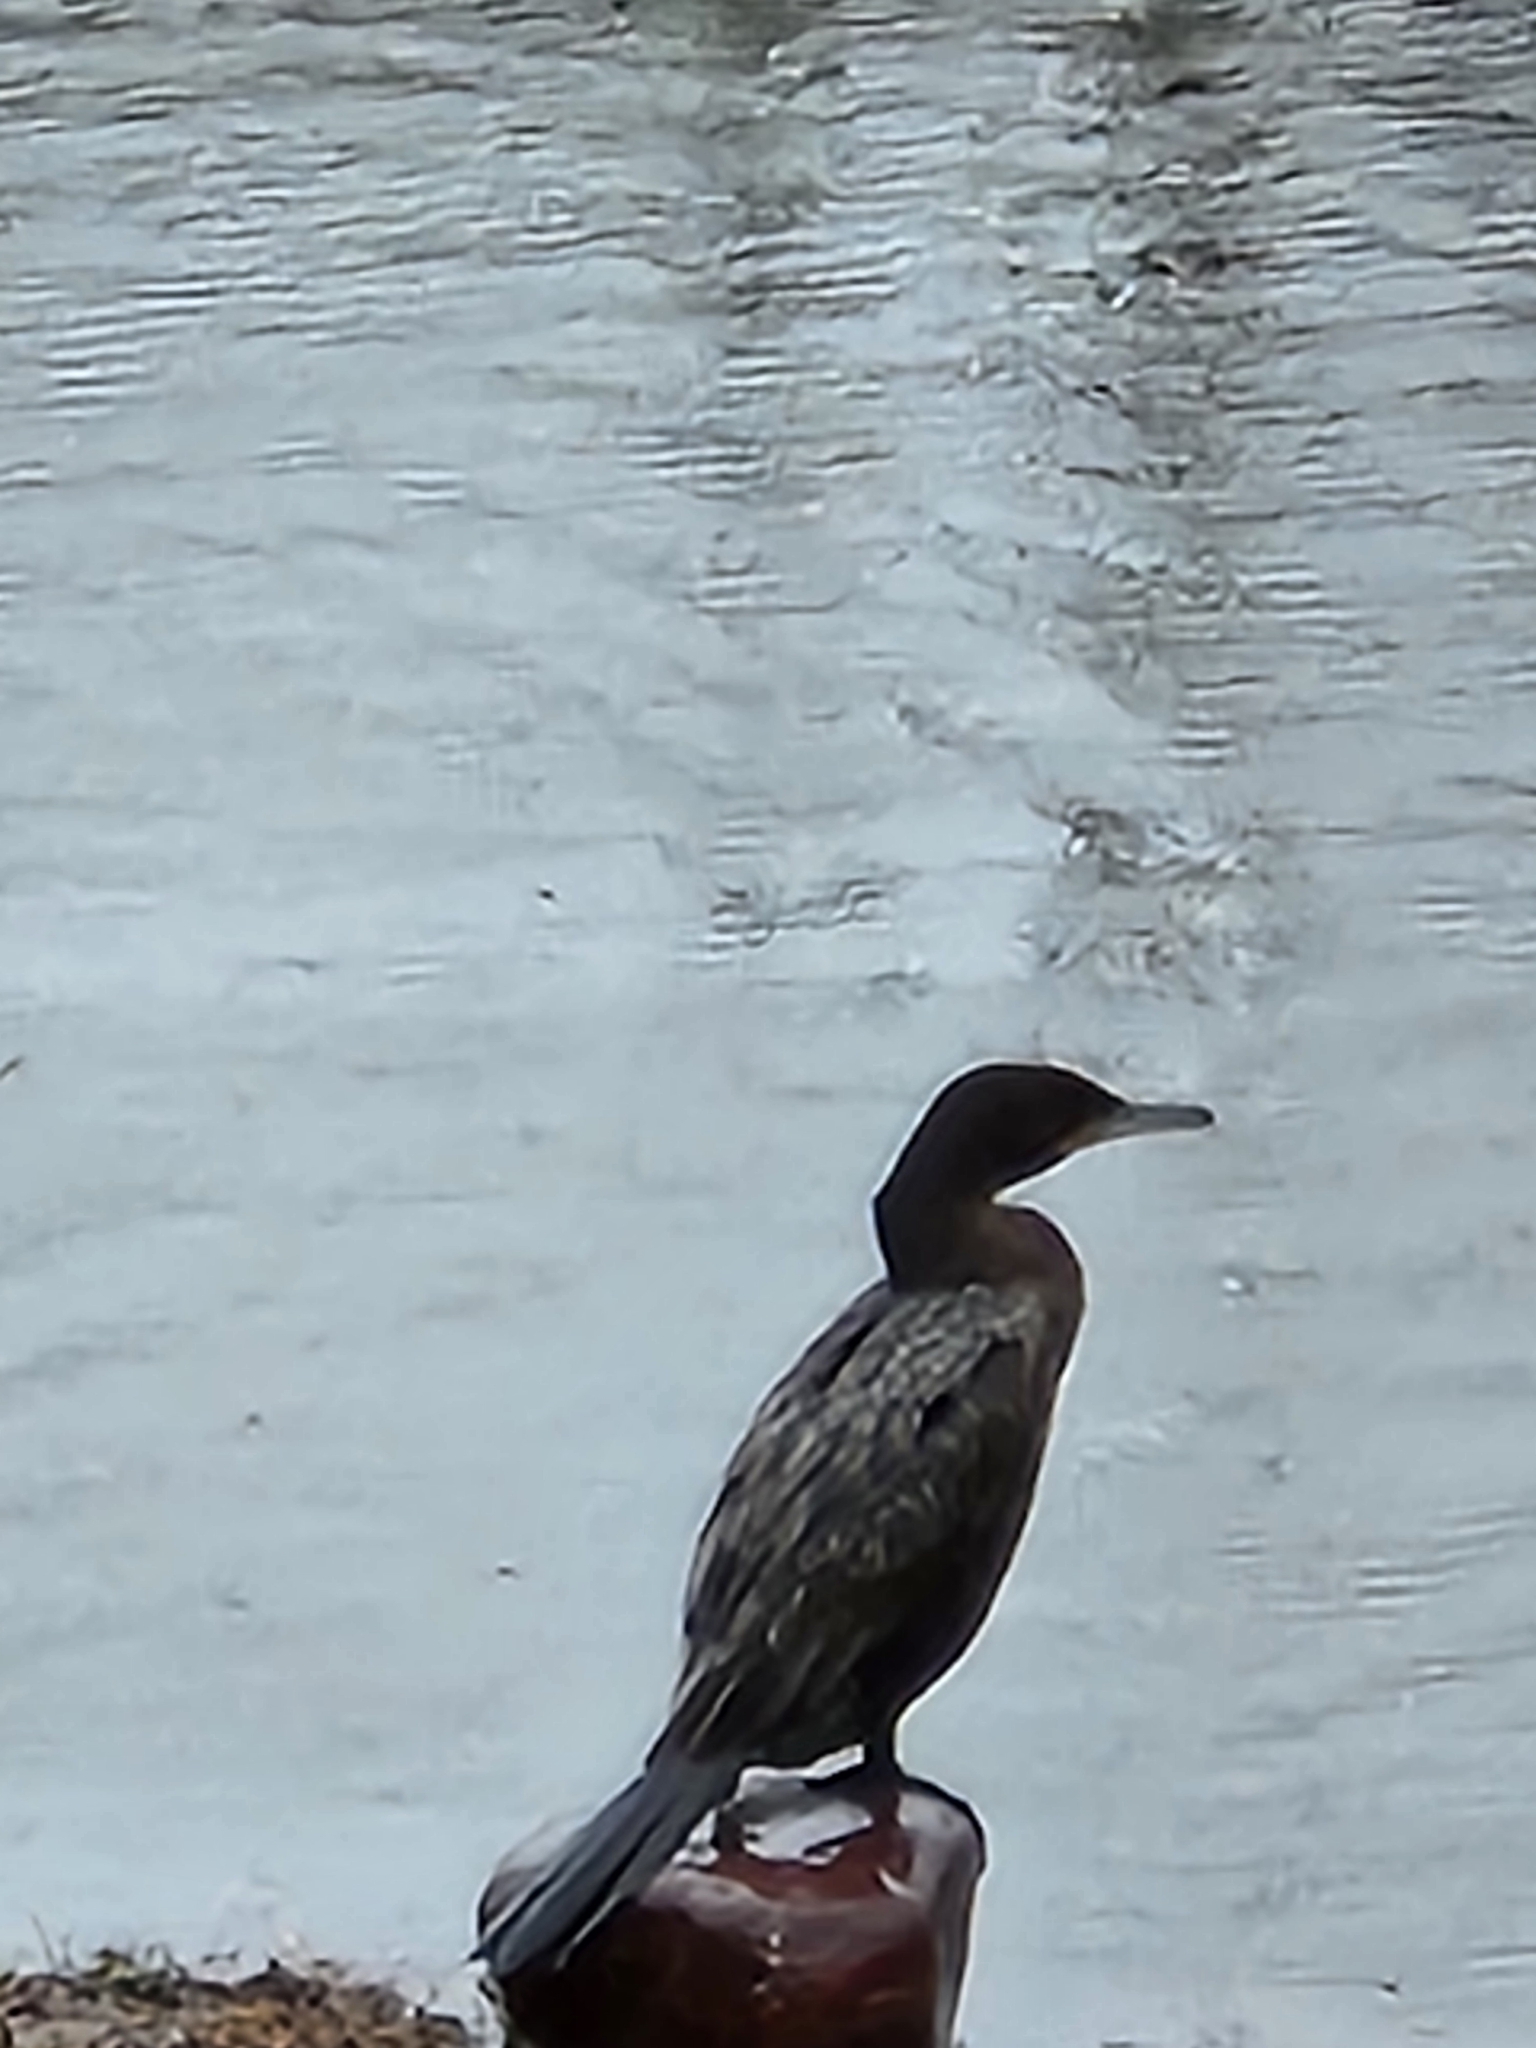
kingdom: Animalia
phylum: Chordata
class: Aves
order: Suliformes
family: Phalacrocoracidae
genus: Phalacrocorax
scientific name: Phalacrocorax brasilianus
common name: Neotropic cormorant
